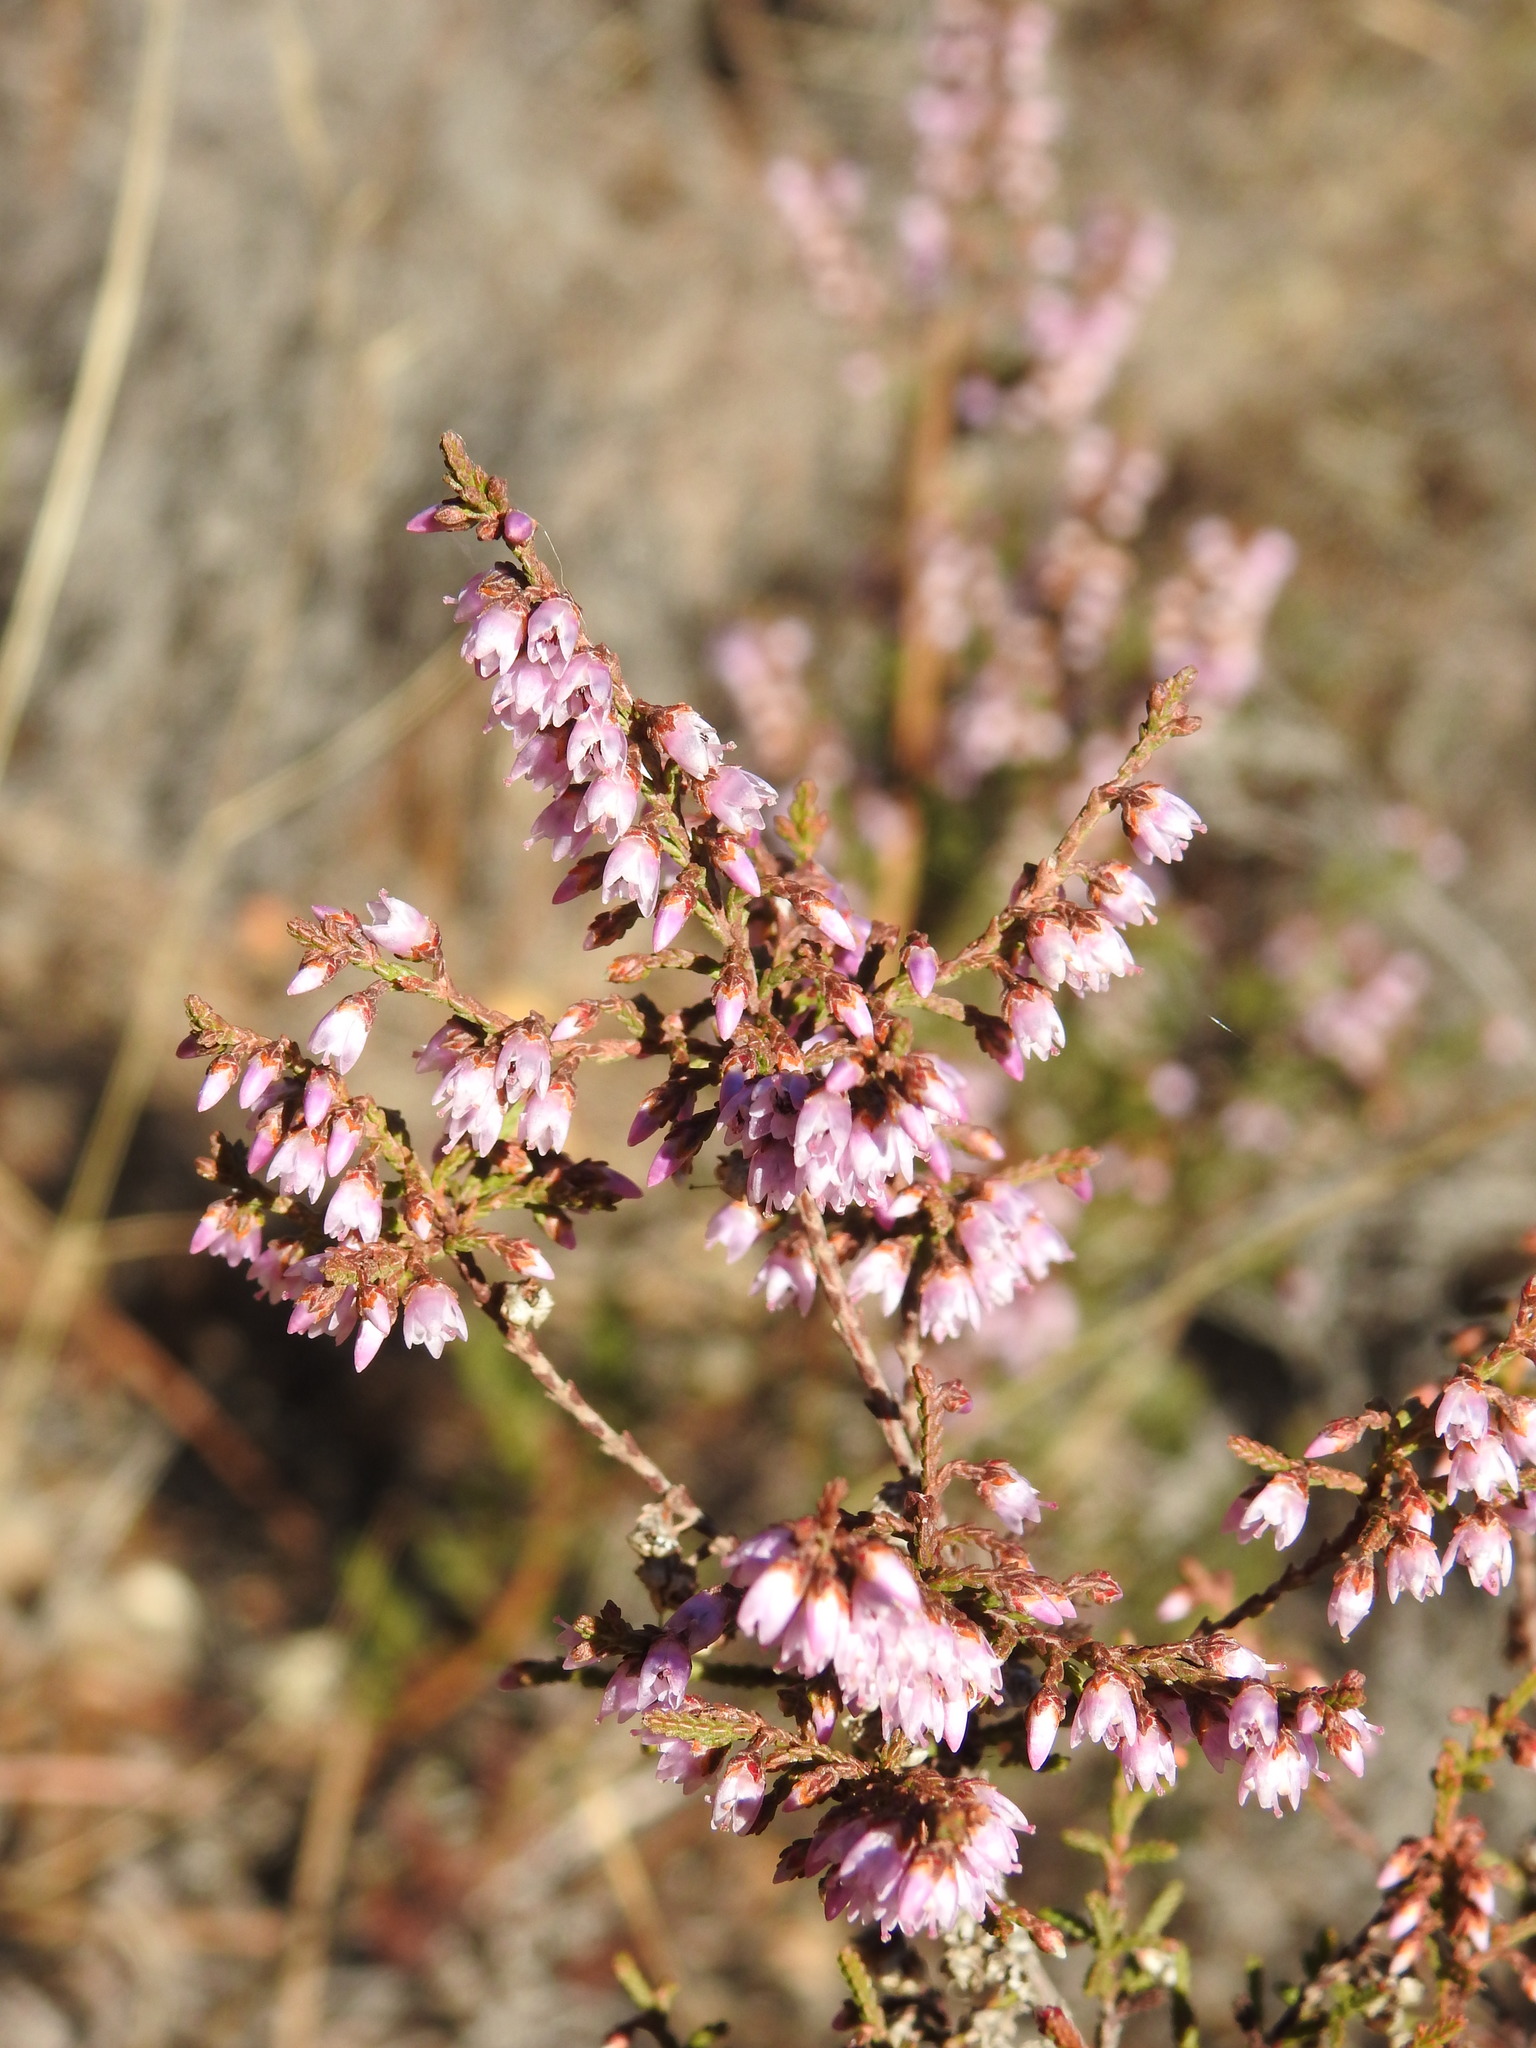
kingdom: Plantae
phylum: Tracheophyta
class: Magnoliopsida
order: Ericales
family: Ericaceae
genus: Calluna
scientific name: Calluna vulgaris
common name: Heather
